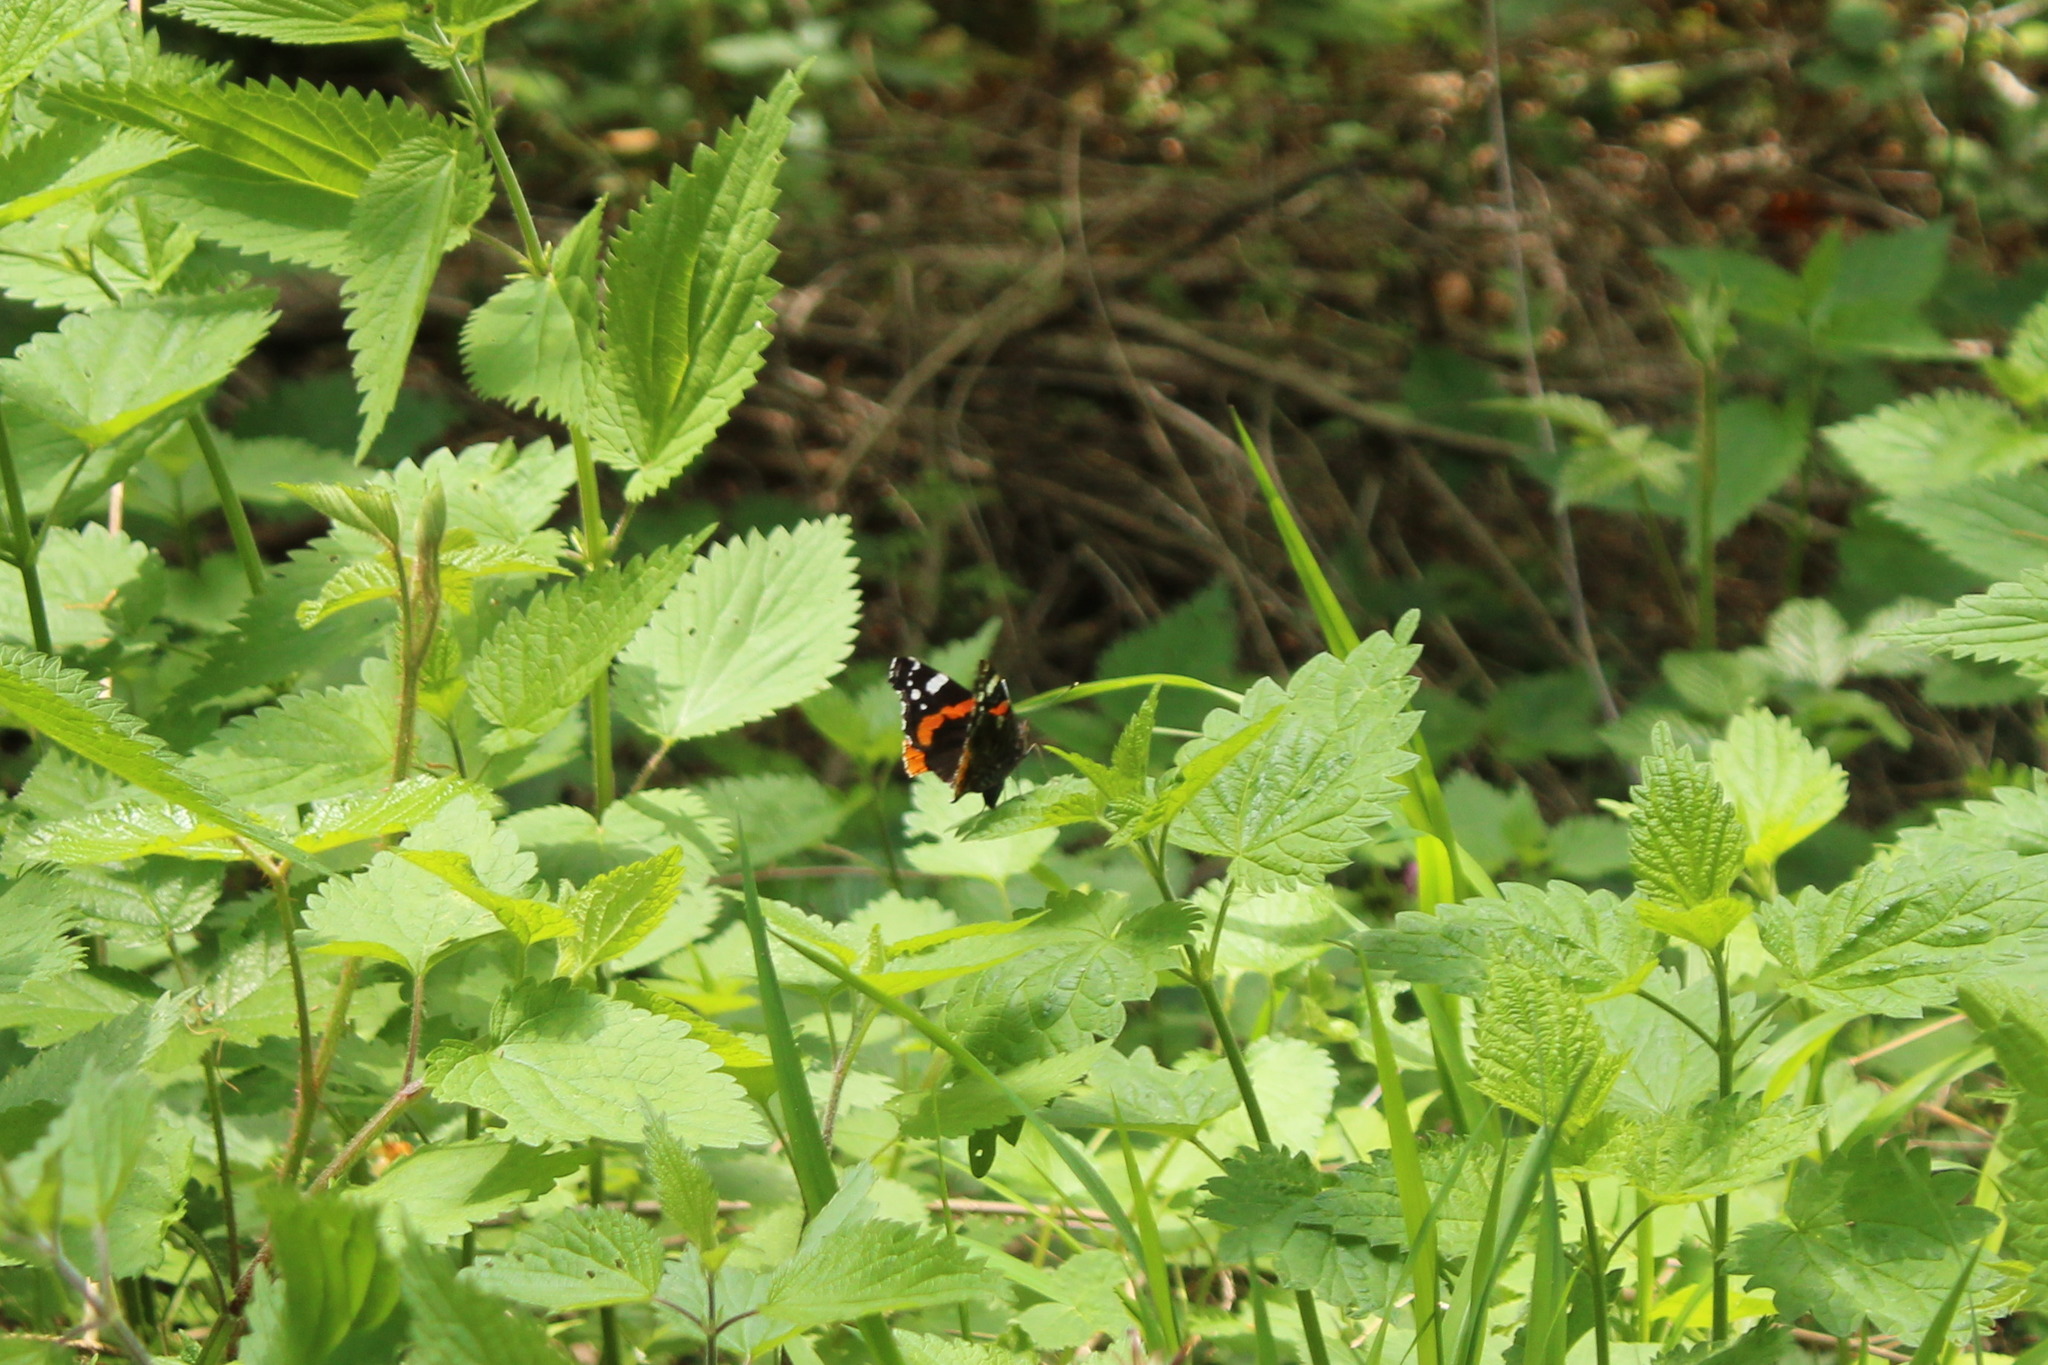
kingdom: Animalia
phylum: Arthropoda
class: Insecta
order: Lepidoptera
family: Nymphalidae
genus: Vanessa
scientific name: Vanessa atalanta
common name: Red admiral
